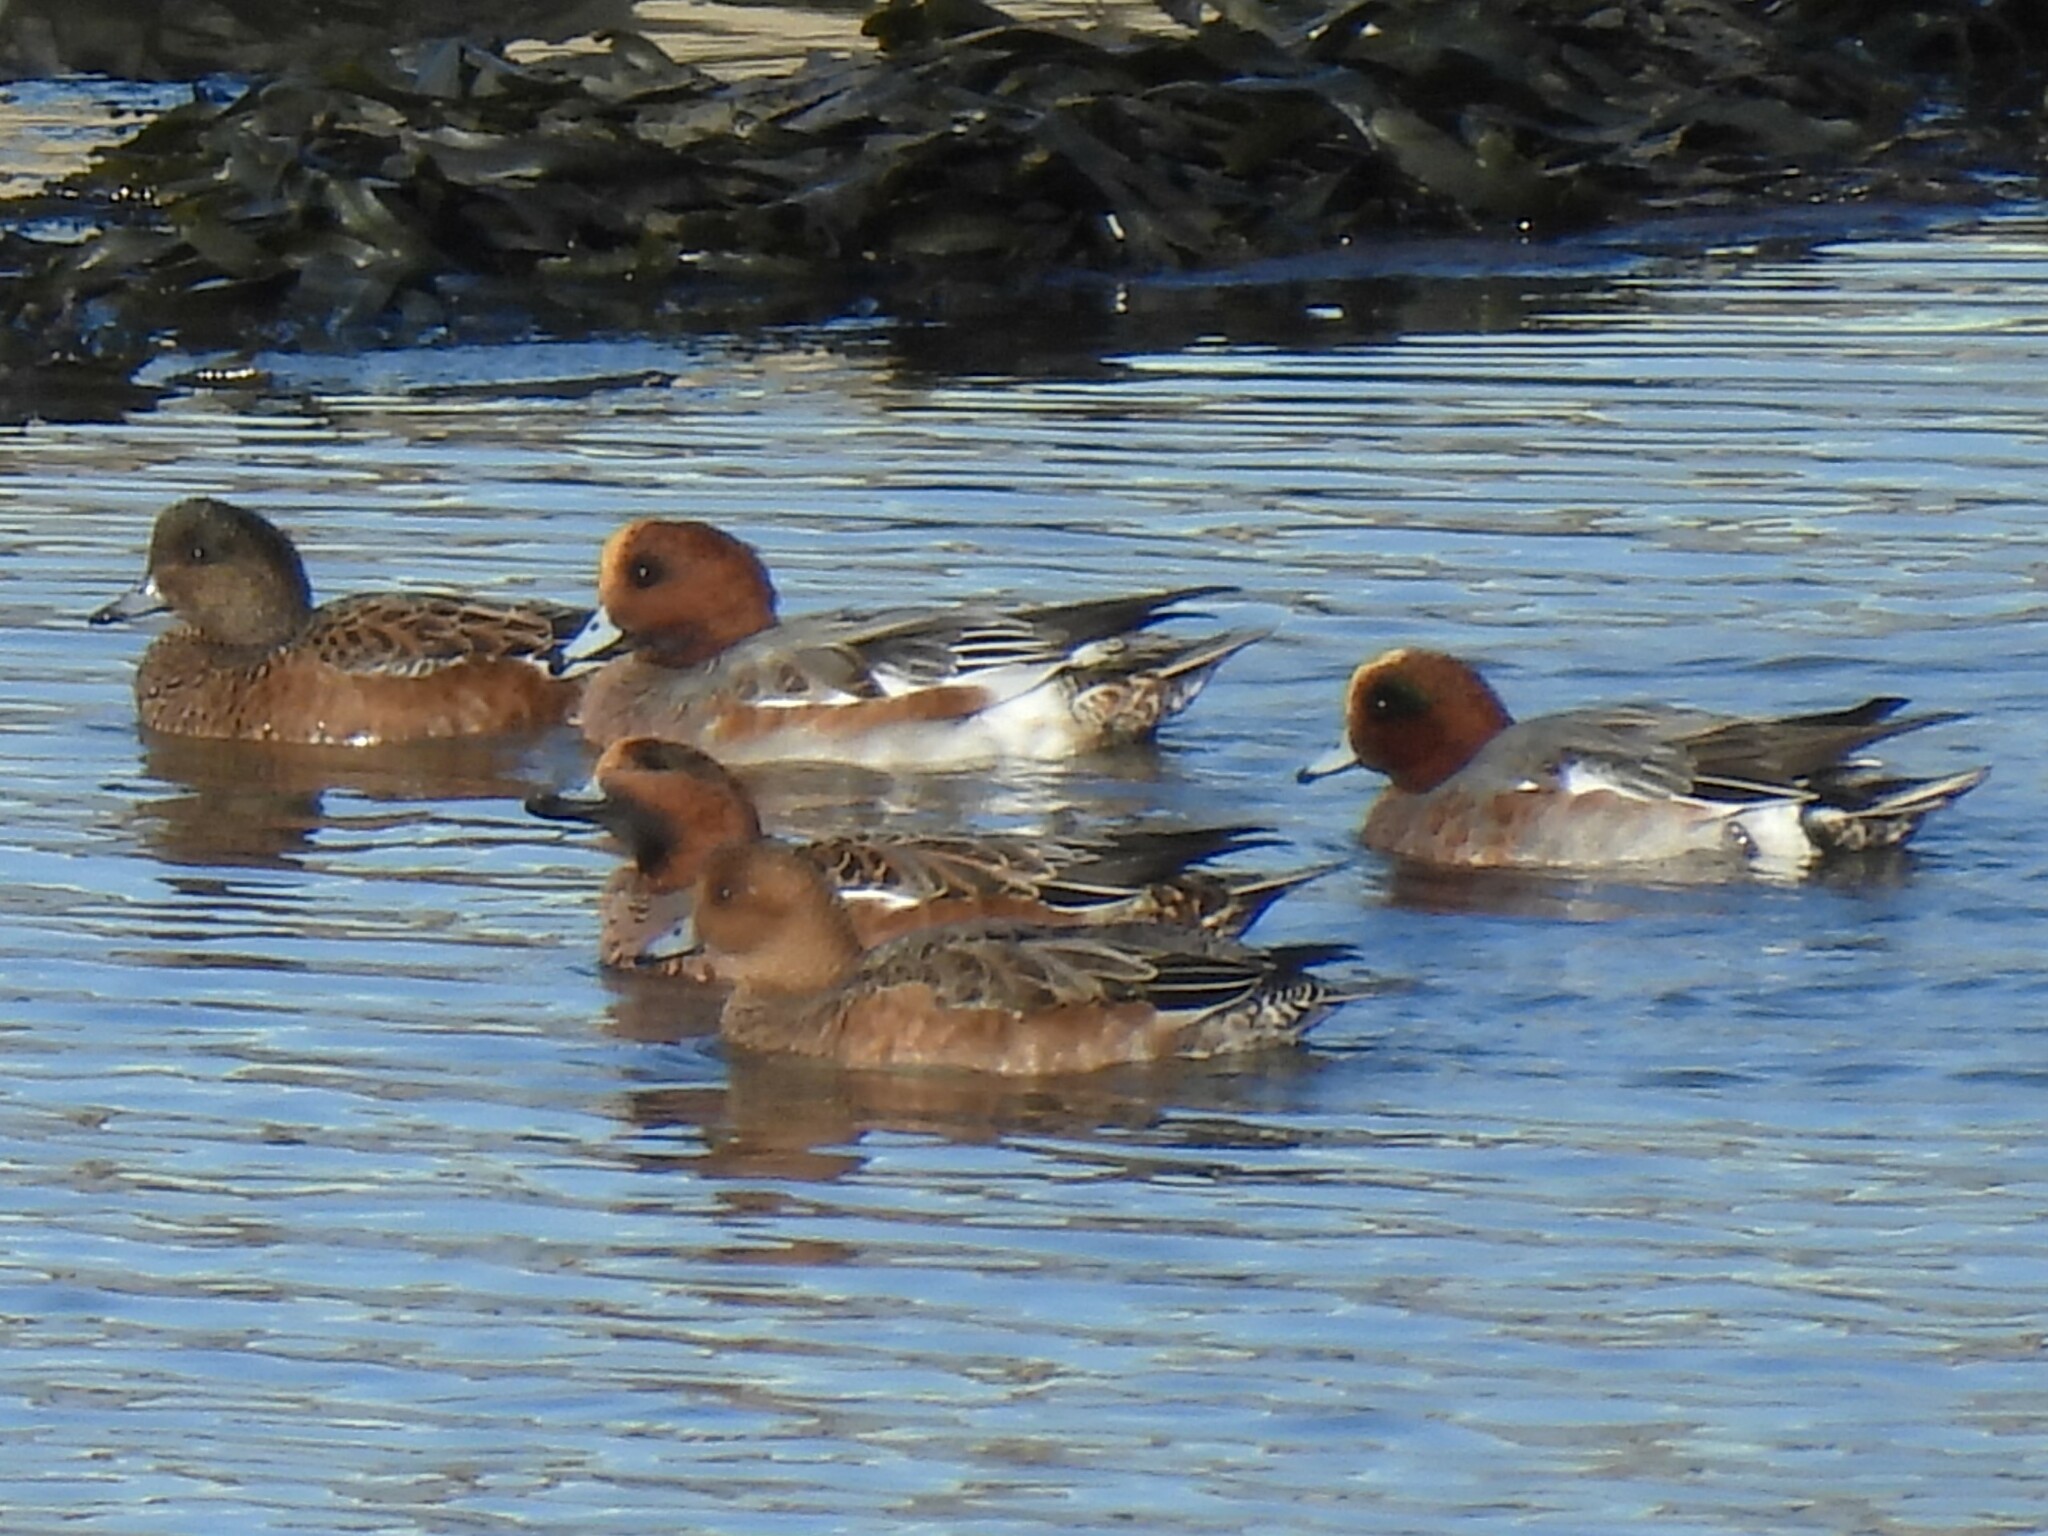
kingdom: Animalia
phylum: Chordata
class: Aves
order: Anseriformes
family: Anatidae
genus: Mareca
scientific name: Mareca penelope
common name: Eurasian wigeon
